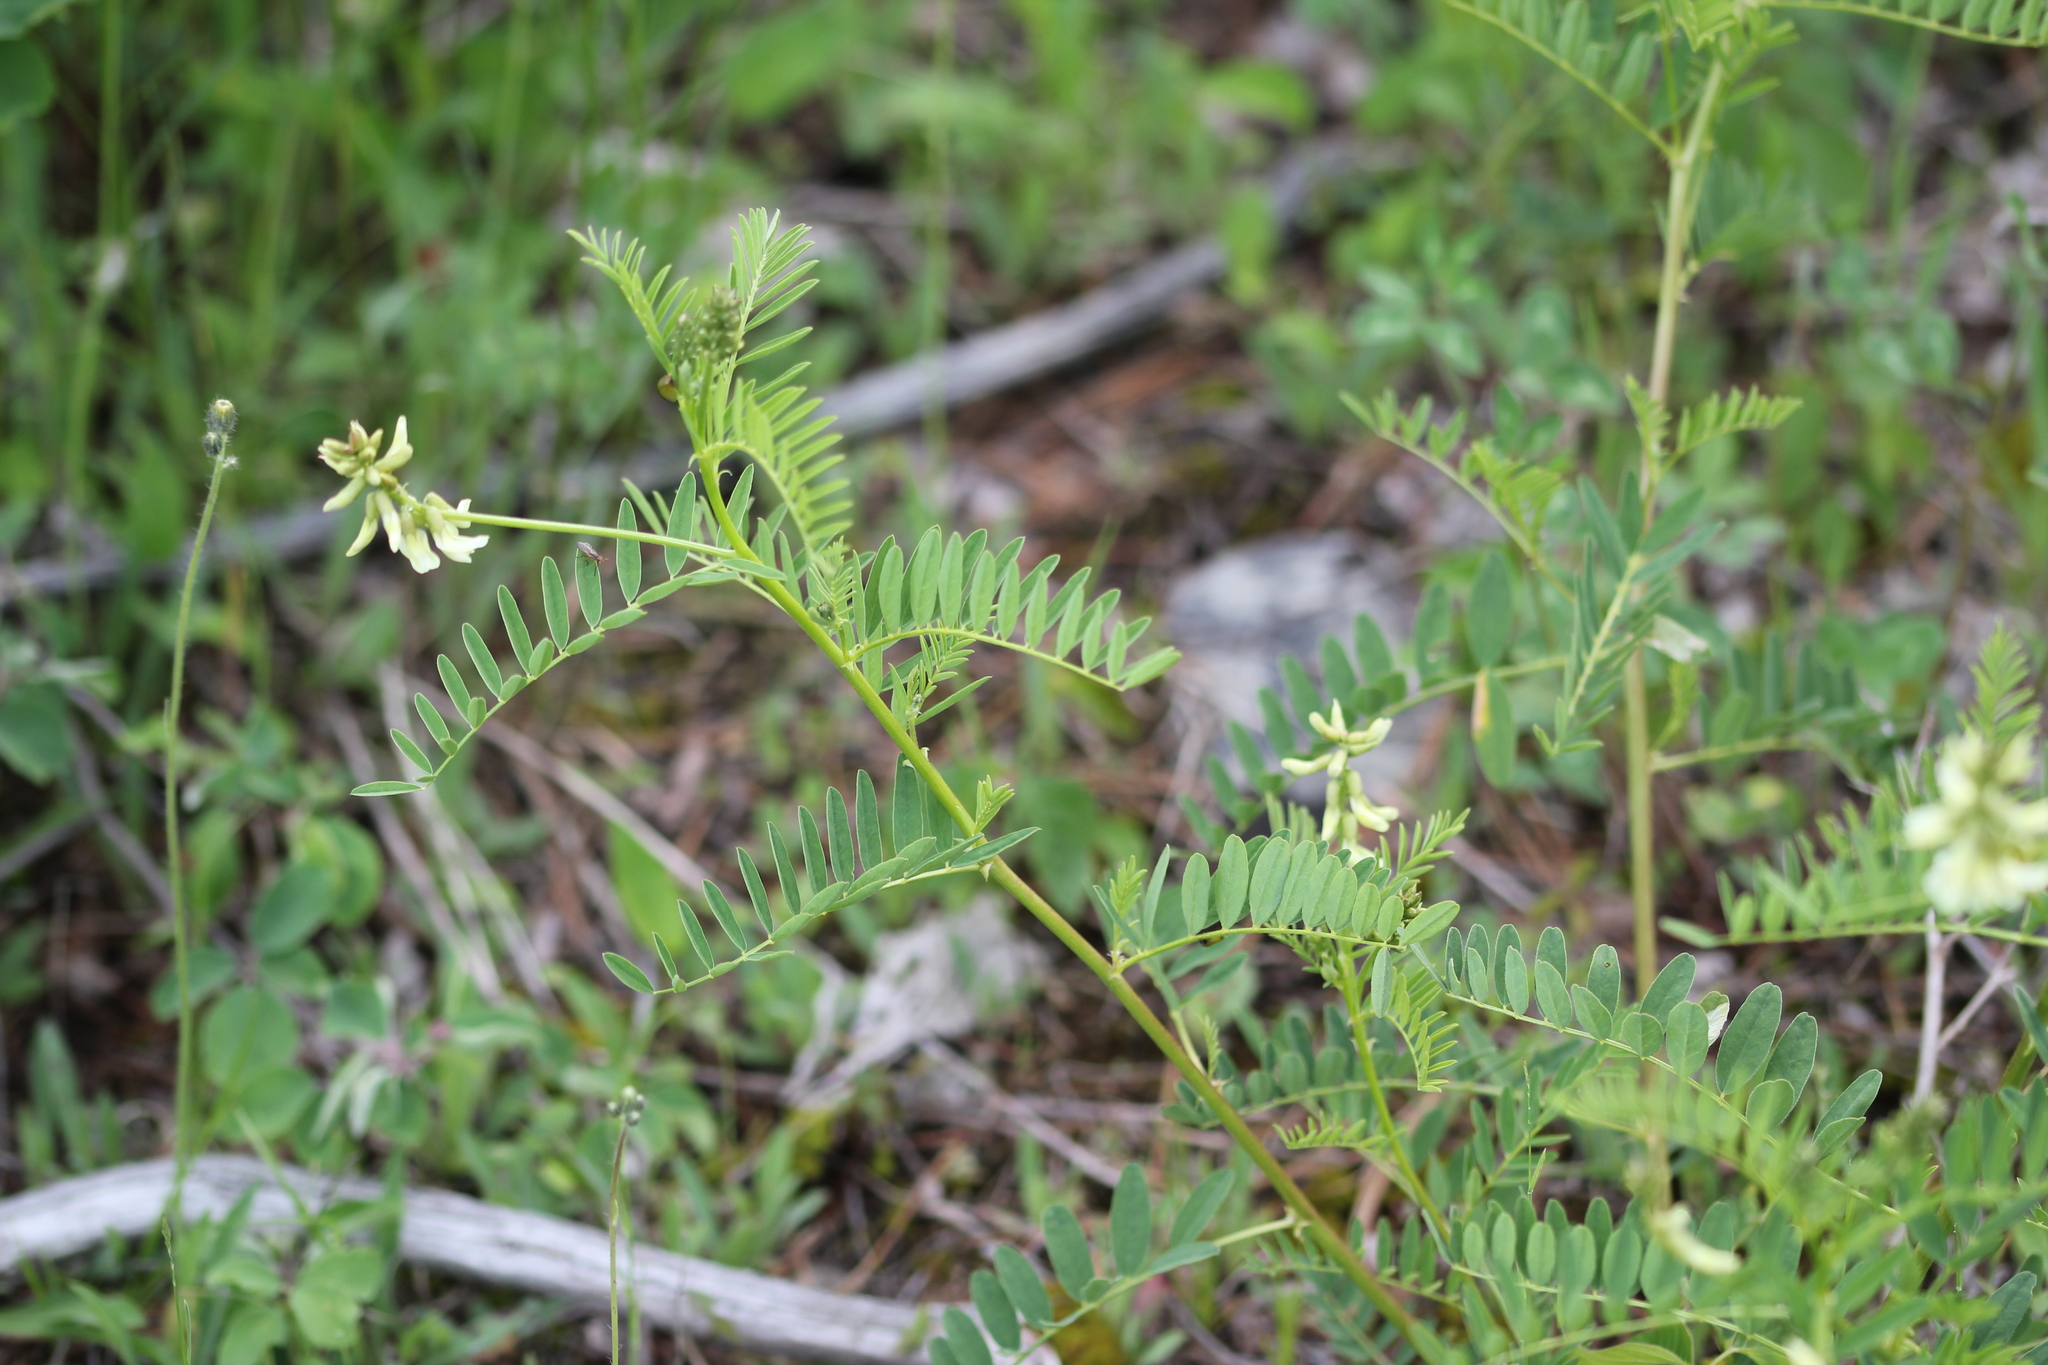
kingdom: Plantae
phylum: Tracheophyta
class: Magnoliopsida
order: Fabales
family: Fabaceae
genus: Astragalus
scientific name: Astragalus neglectus
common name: Cooper's milk-vetch
